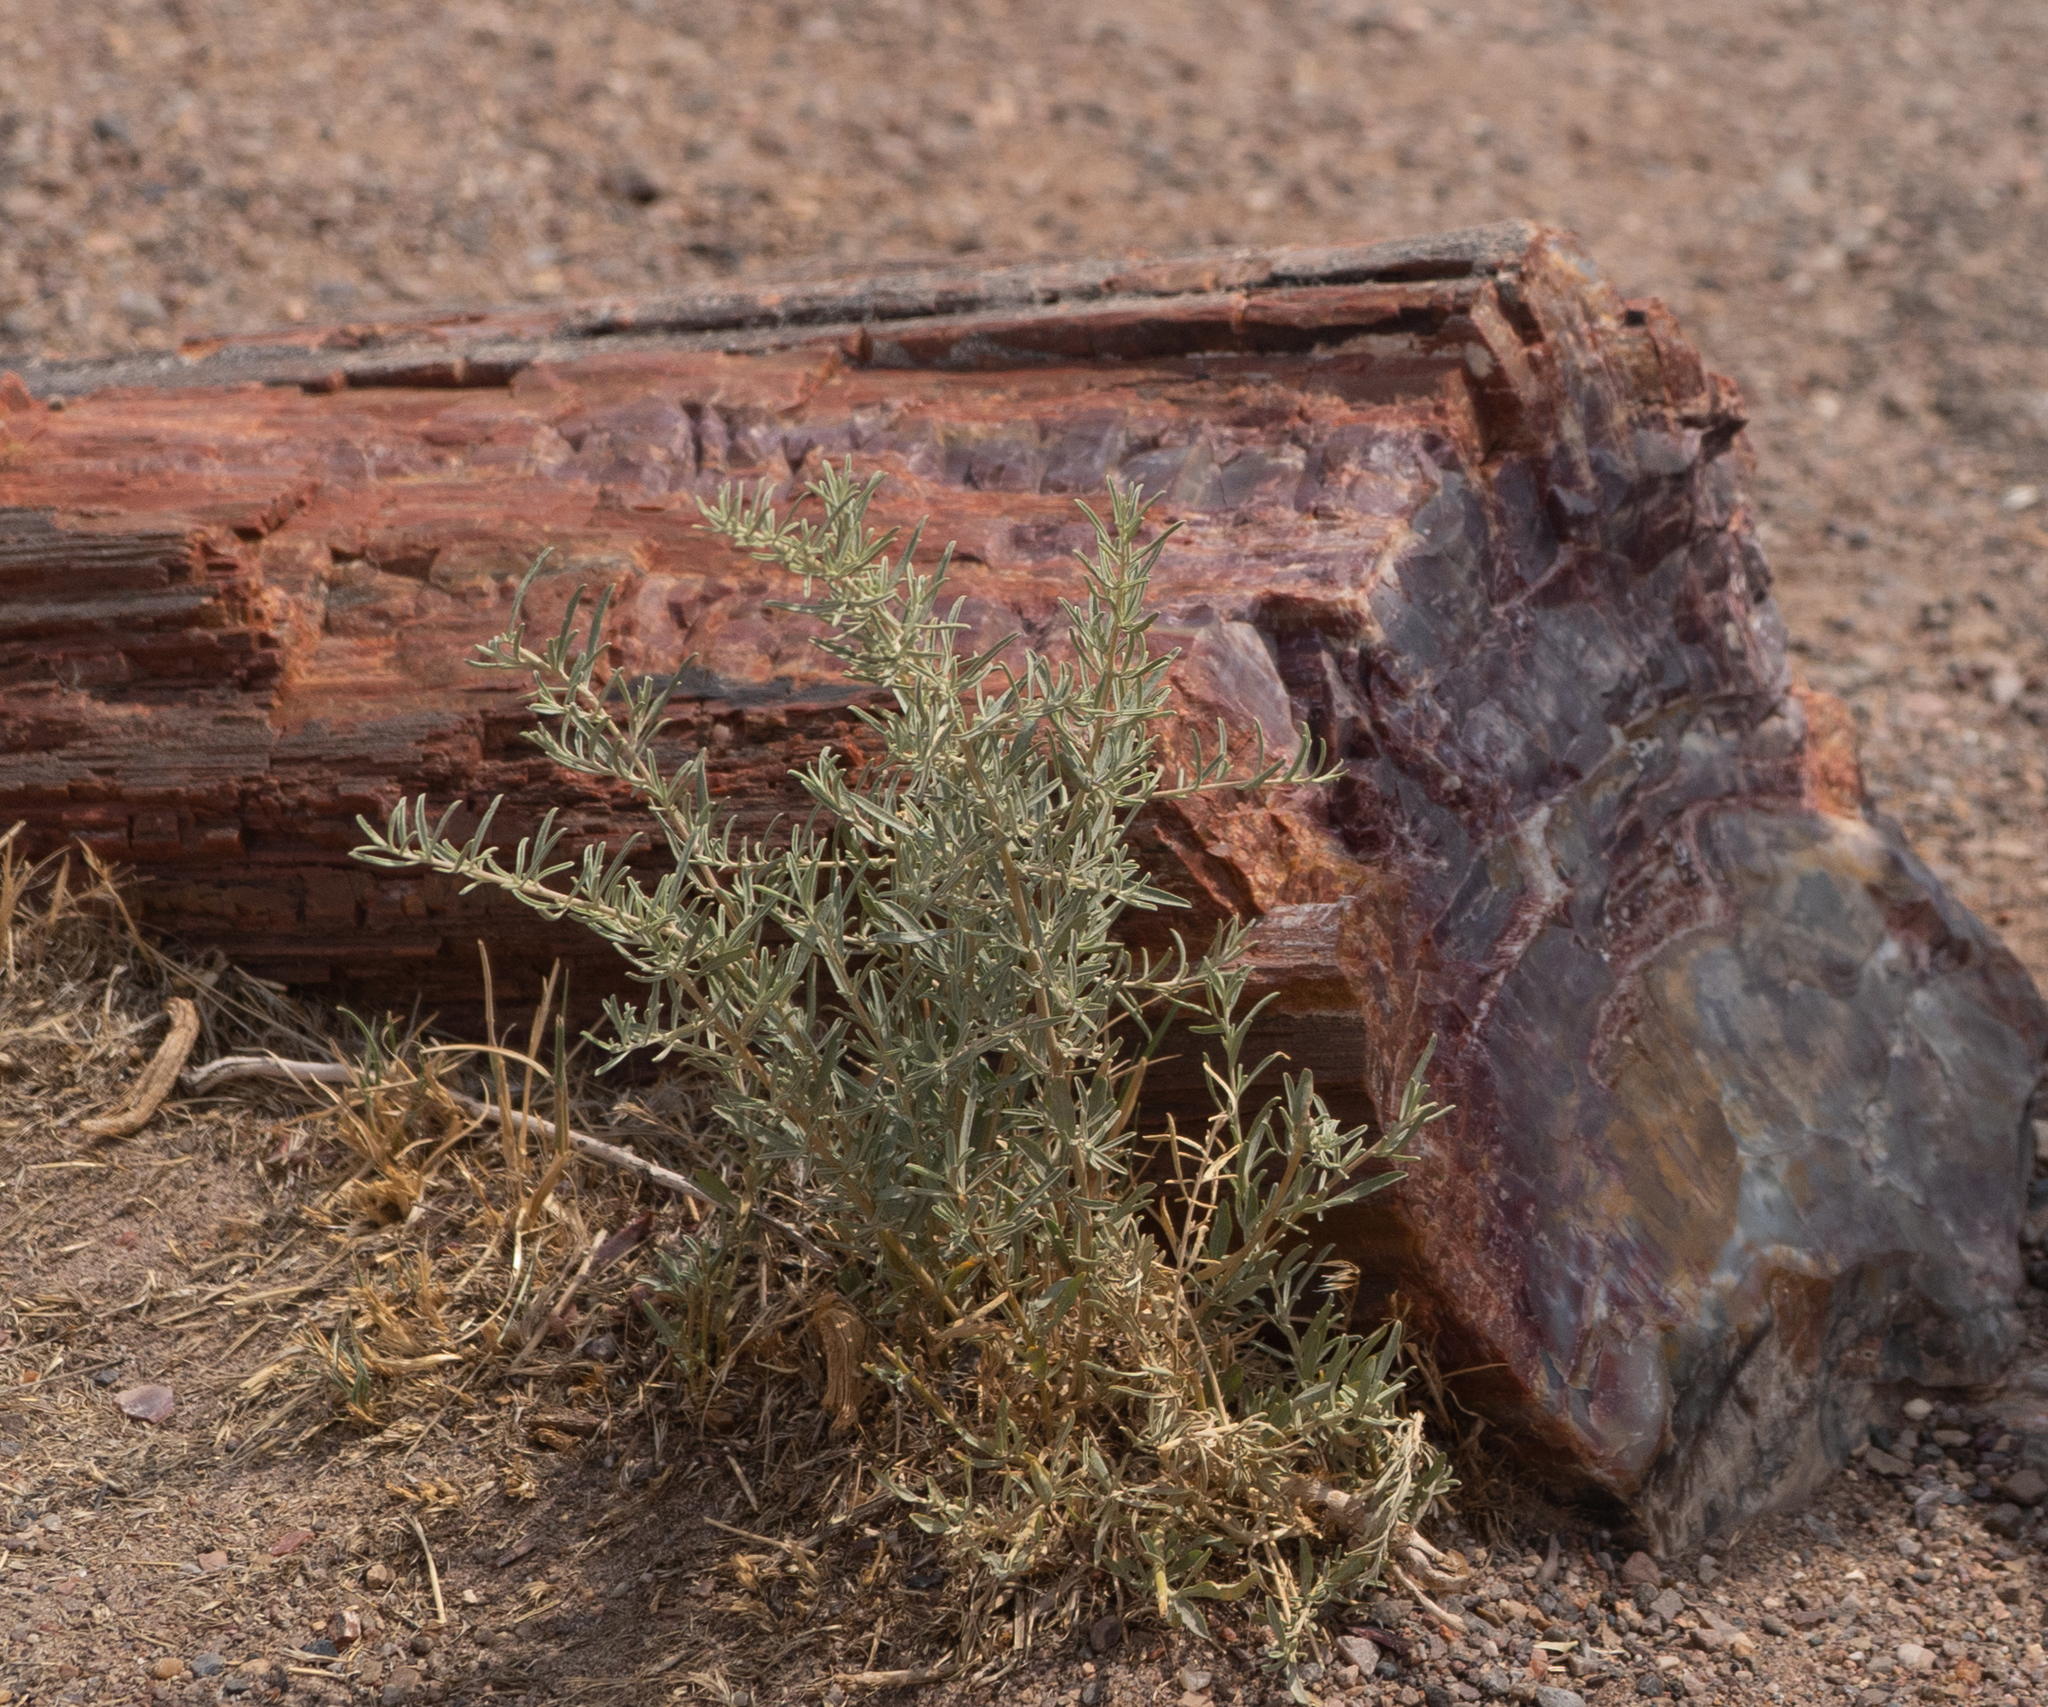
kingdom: Plantae
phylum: Tracheophyta
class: Magnoliopsida
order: Caryophyllales
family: Amaranthaceae
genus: Atriplex
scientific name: Atriplex canescens
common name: Four-wing saltbush
